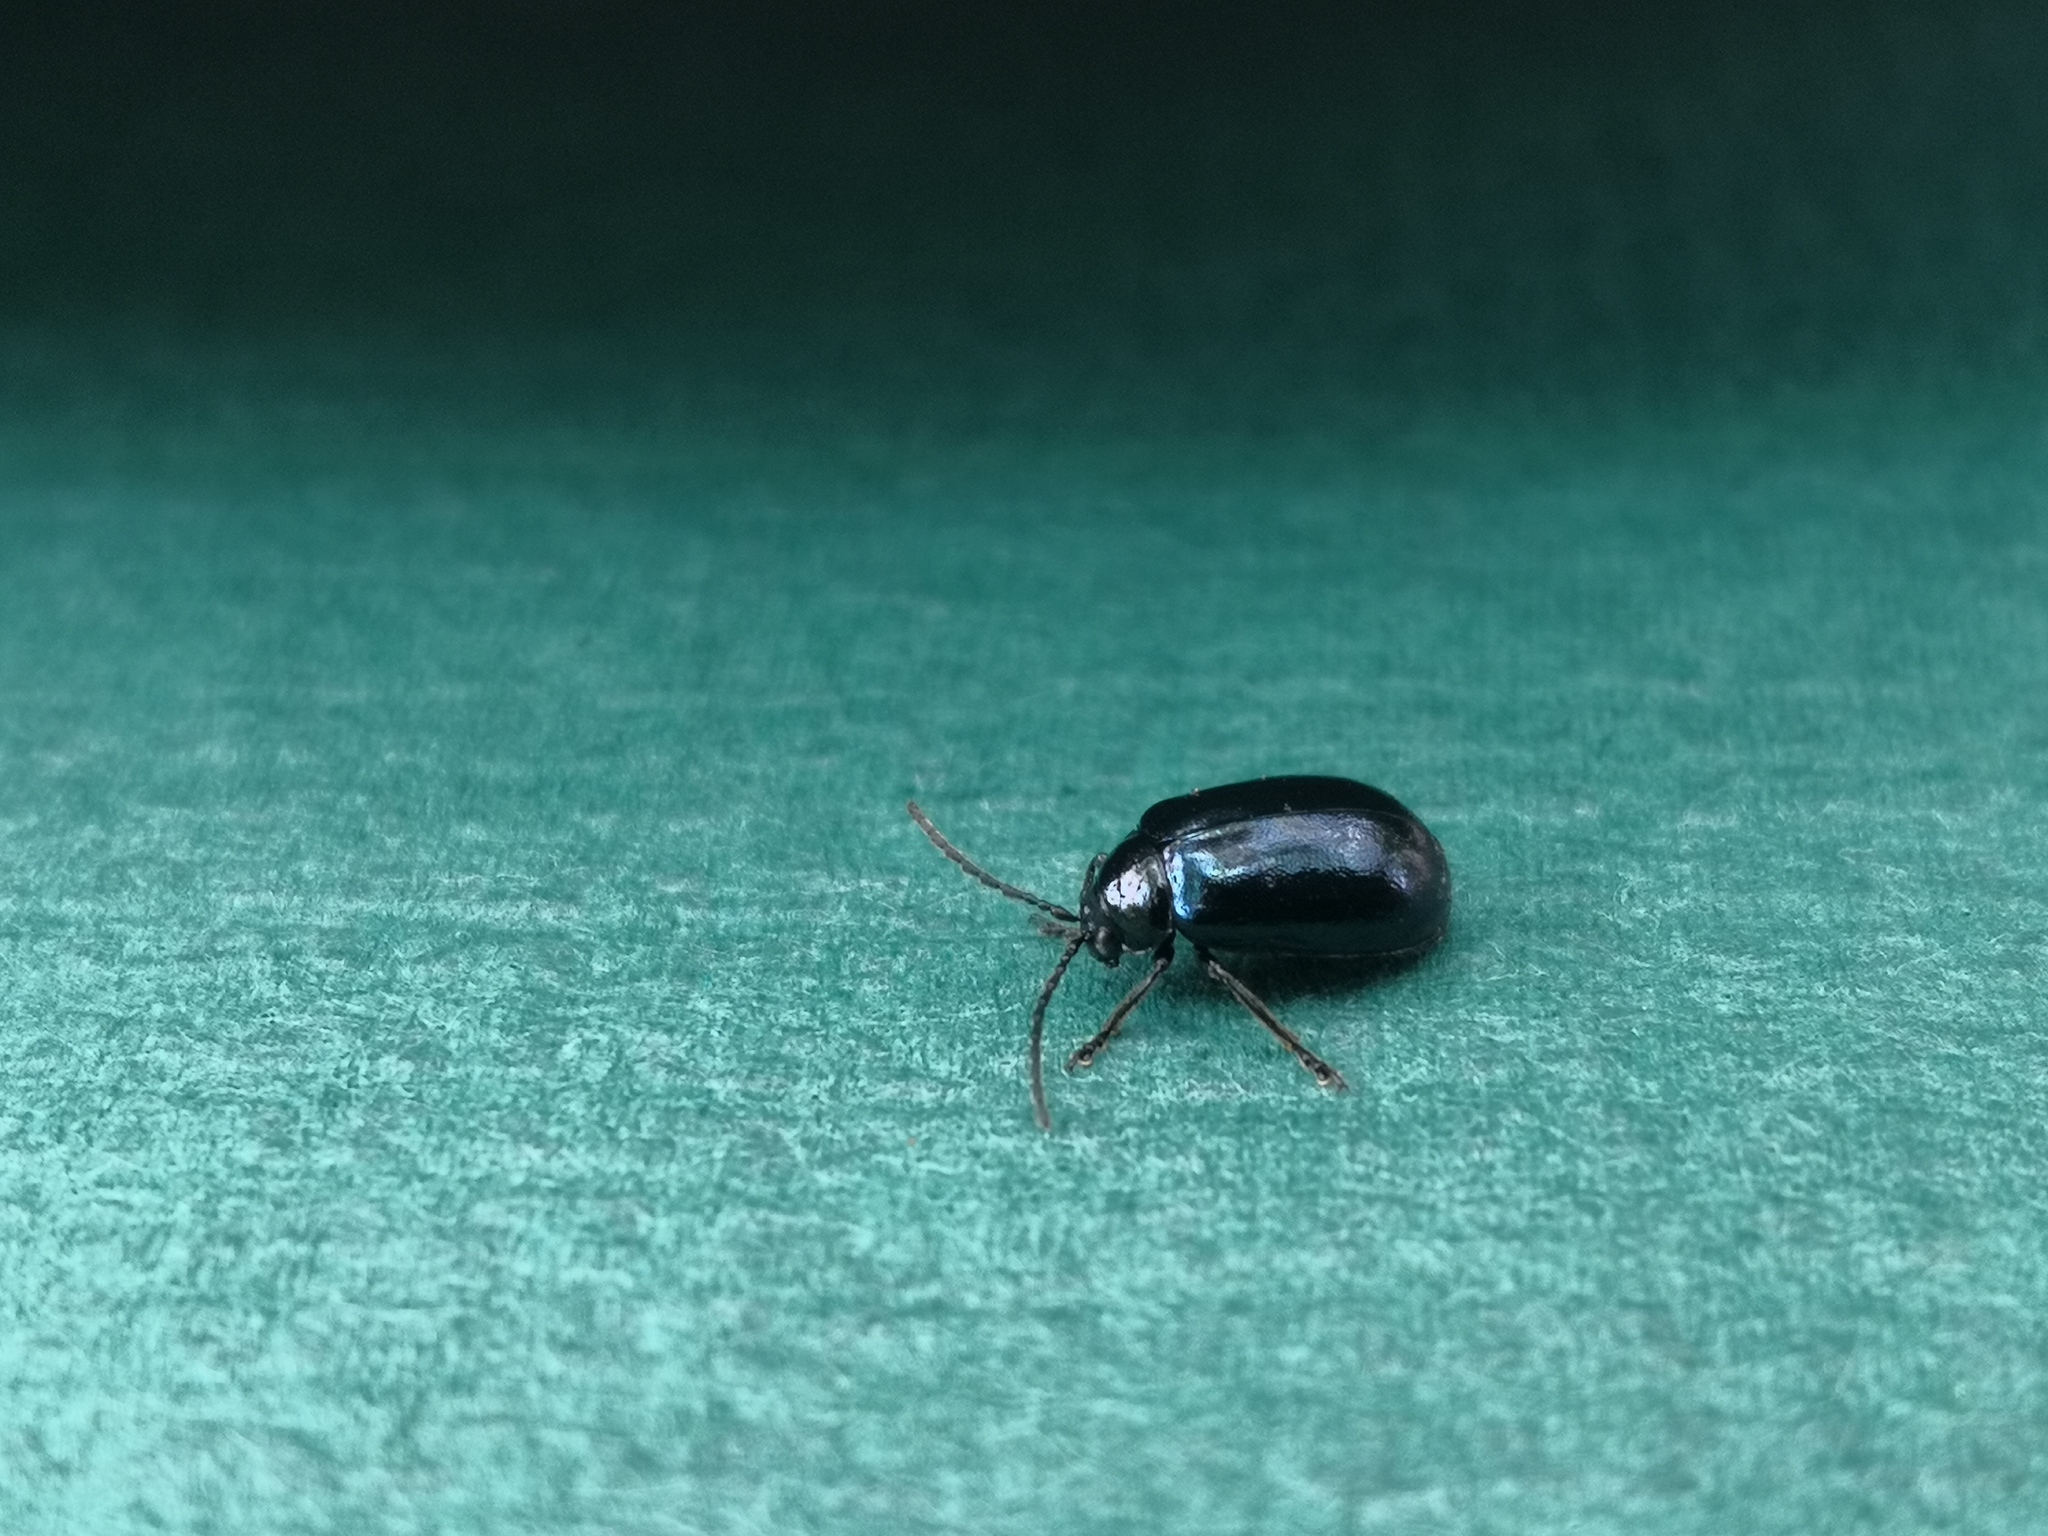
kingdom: Animalia
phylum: Arthropoda
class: Insecta
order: Coleoptera
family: Chrysomelidae
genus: Agelastica
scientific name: Agelastica alni
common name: Alder leaf beetle
